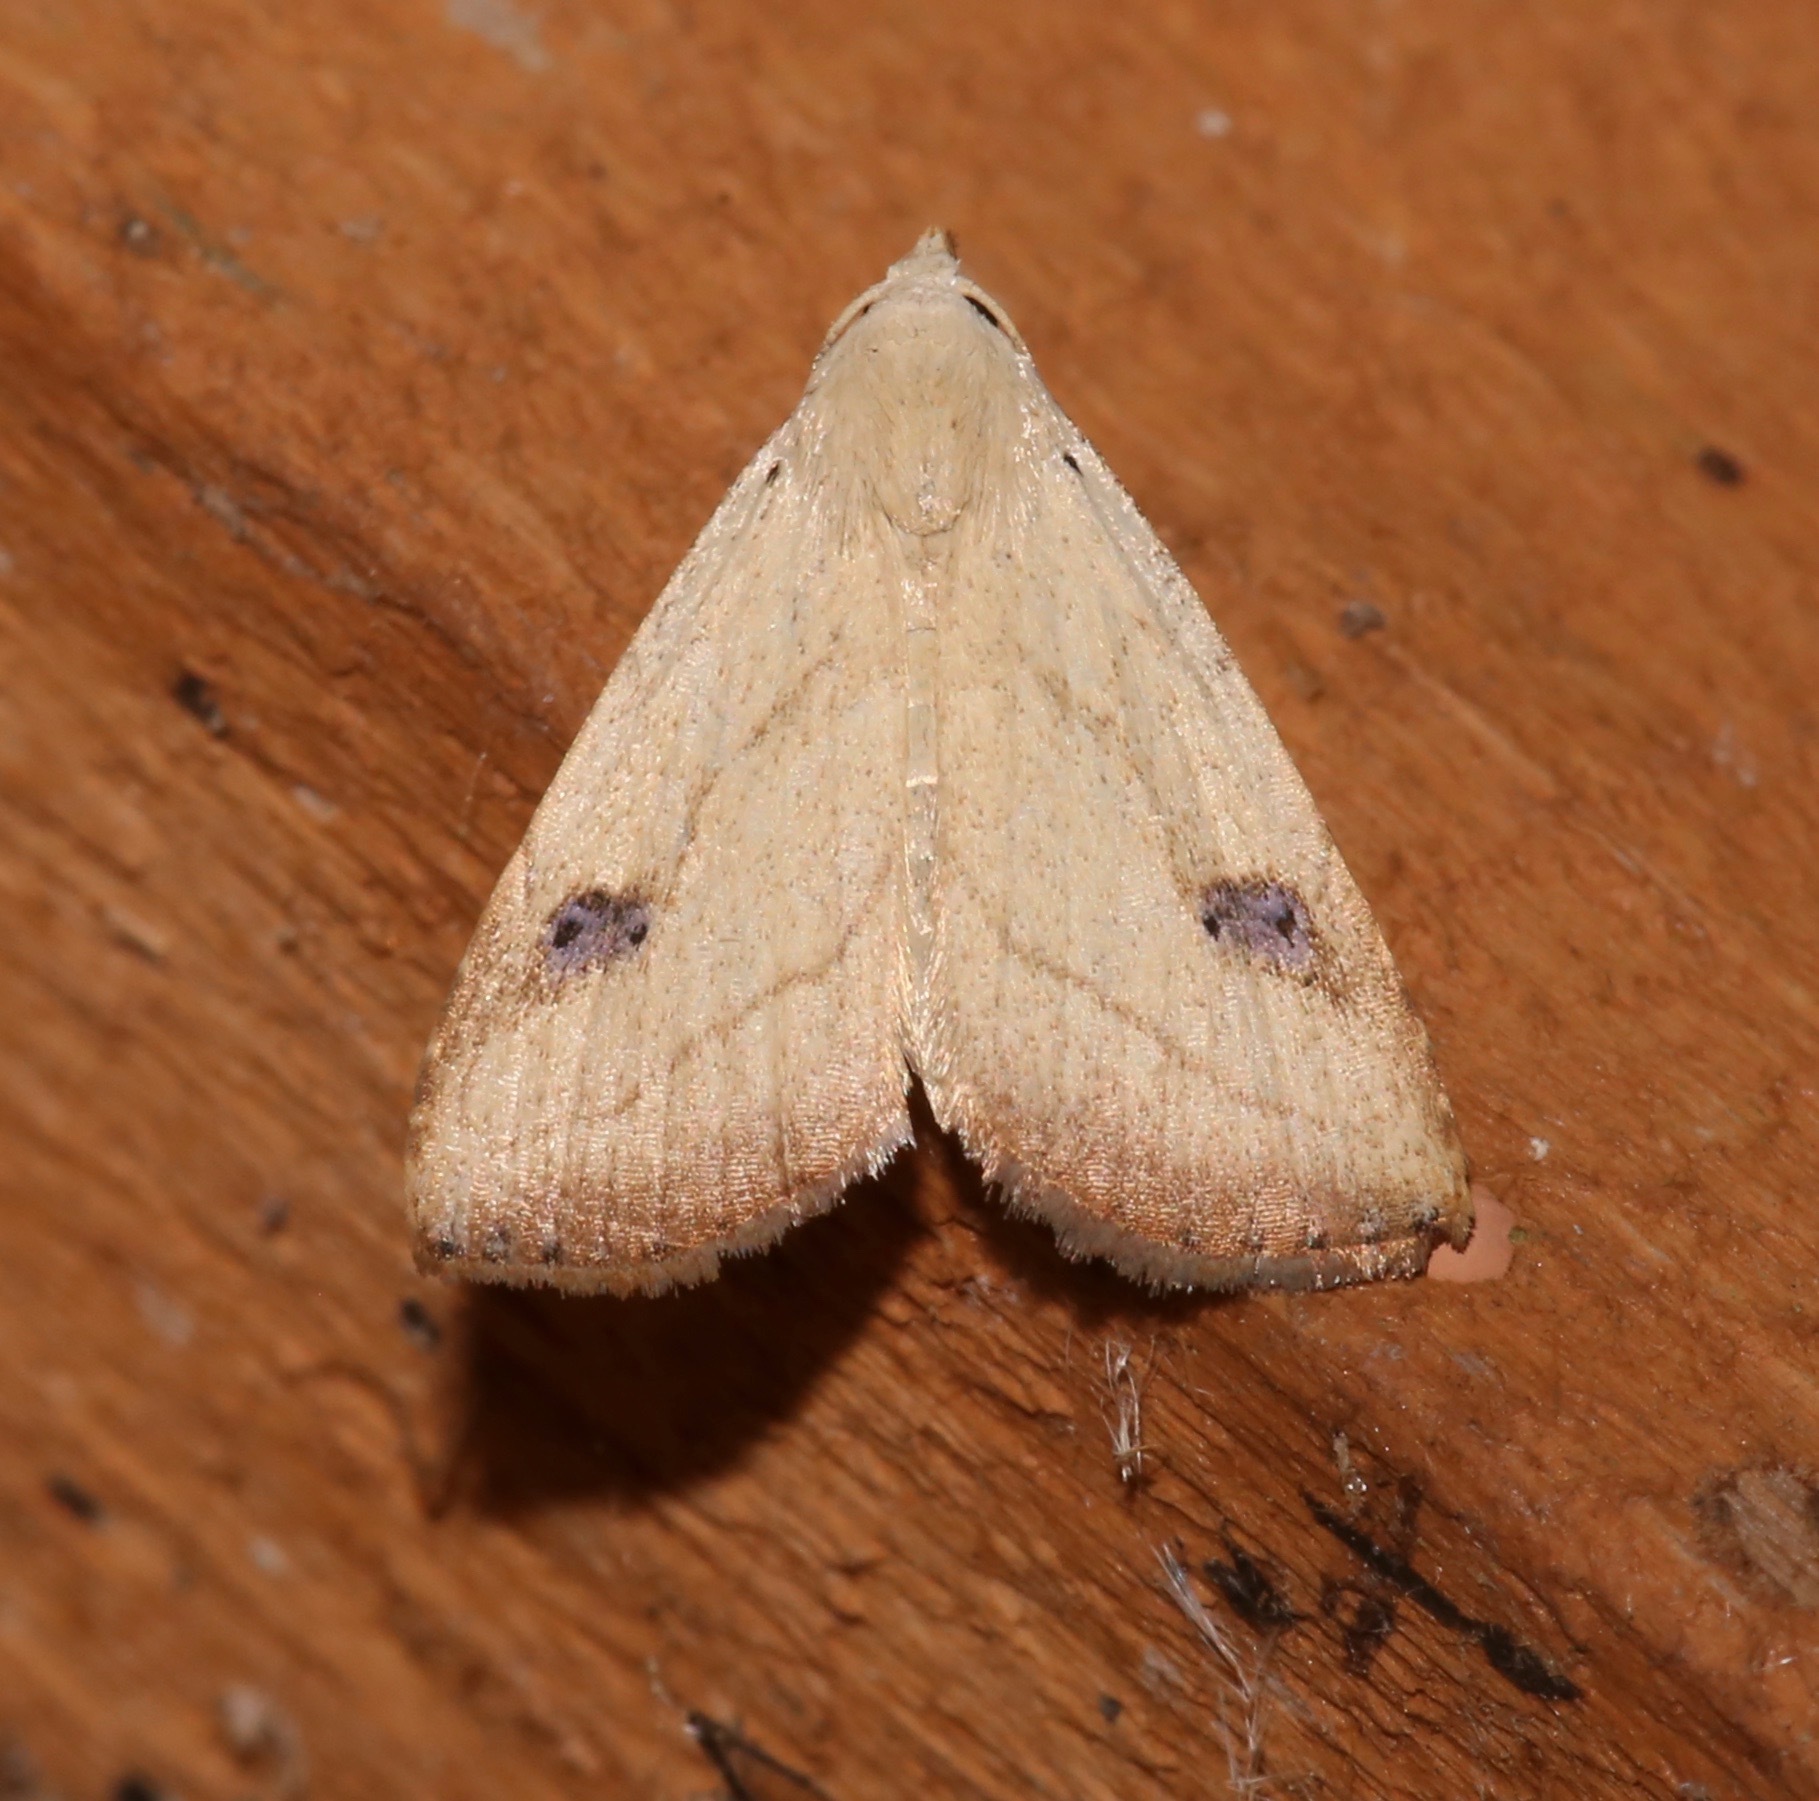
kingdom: Animalia
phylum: Arthropoda
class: Insecta
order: Lepidoptera
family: Erebidae
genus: Rivula
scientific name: Rivula propinqualis
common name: Spotted grass moth
